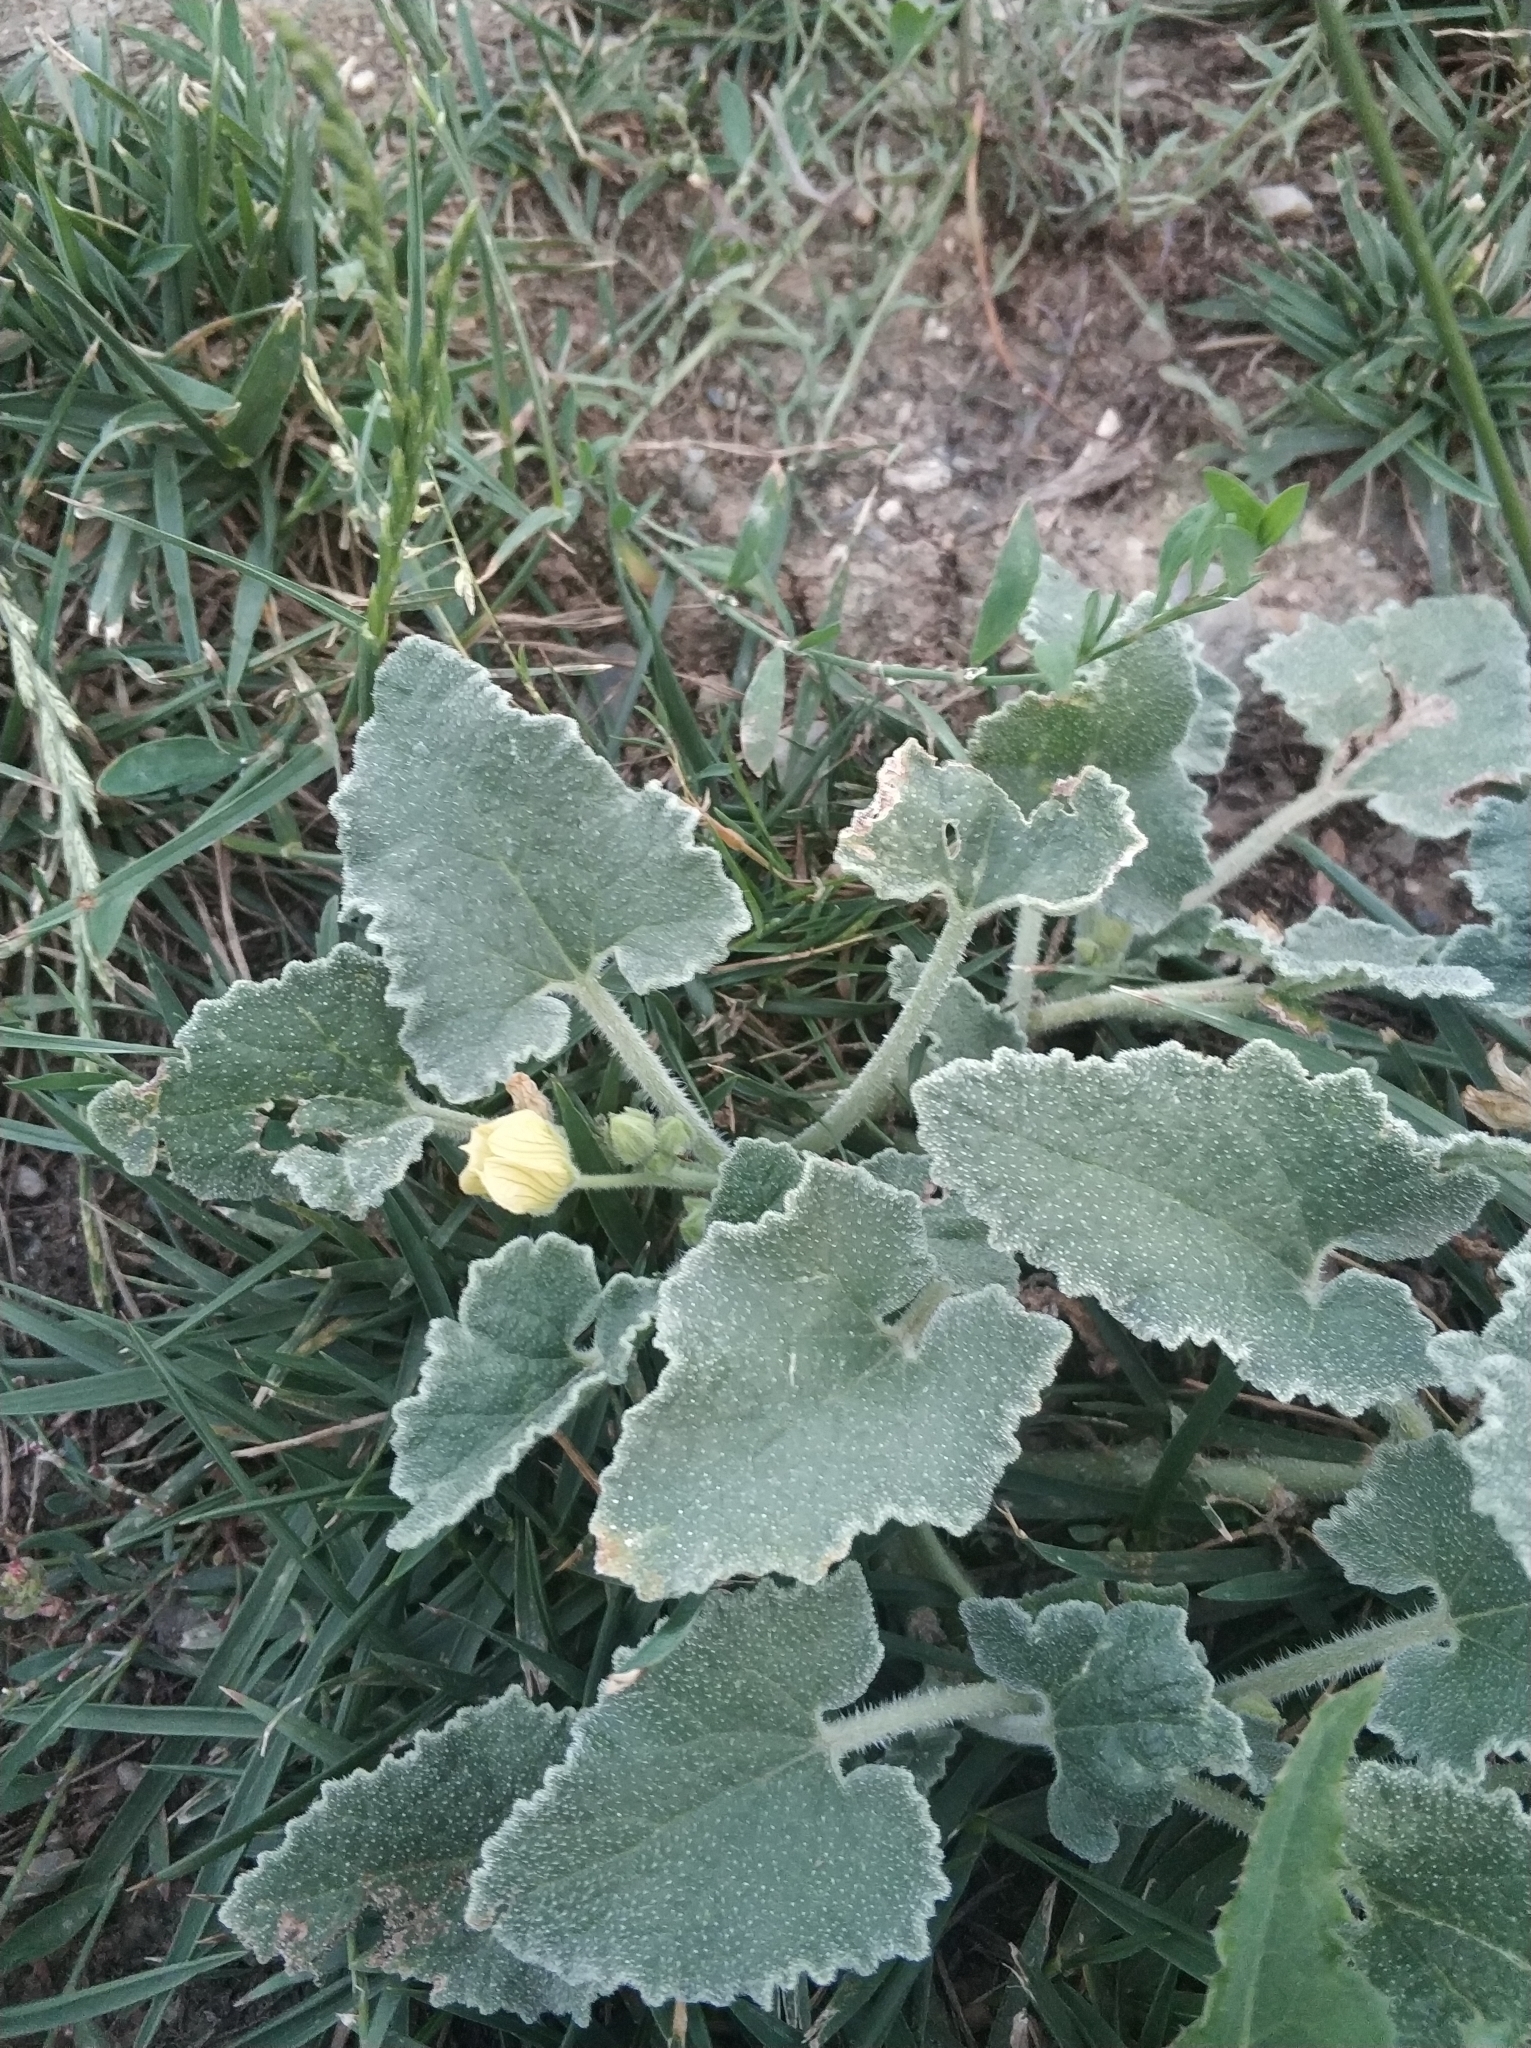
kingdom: Plantae
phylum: Tracheophyta
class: Magnoliopsida
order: Cucurbitales
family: Cucurbitaceae
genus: Ecballium
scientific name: Ecballium elaterium
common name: Squirting cucumber
